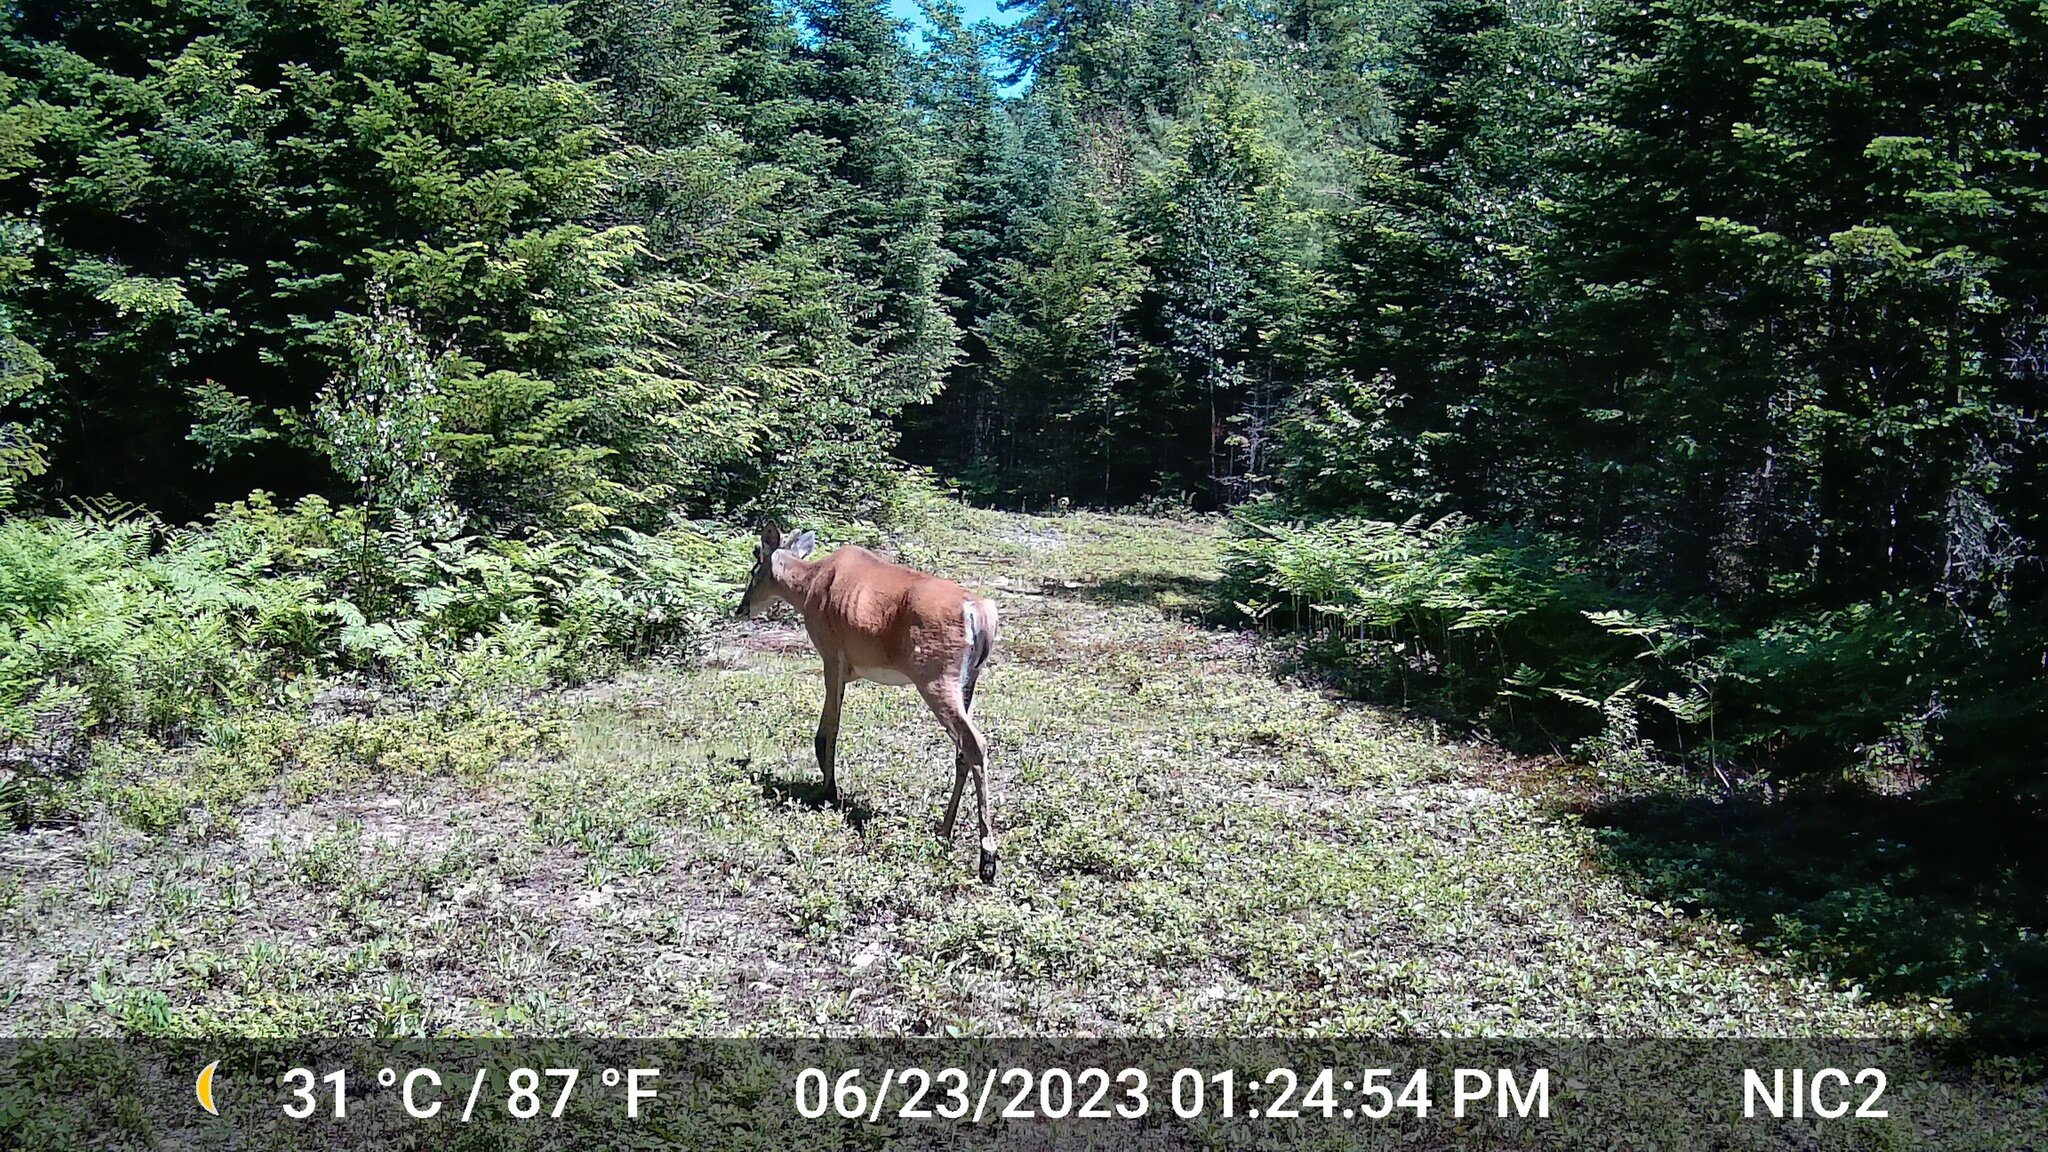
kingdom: Animalia
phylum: Chordata
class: Mammalia
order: Artiodactyla
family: Cervidae
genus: Odocoileus
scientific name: Odocoileus virginianus
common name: White-tailed deer
